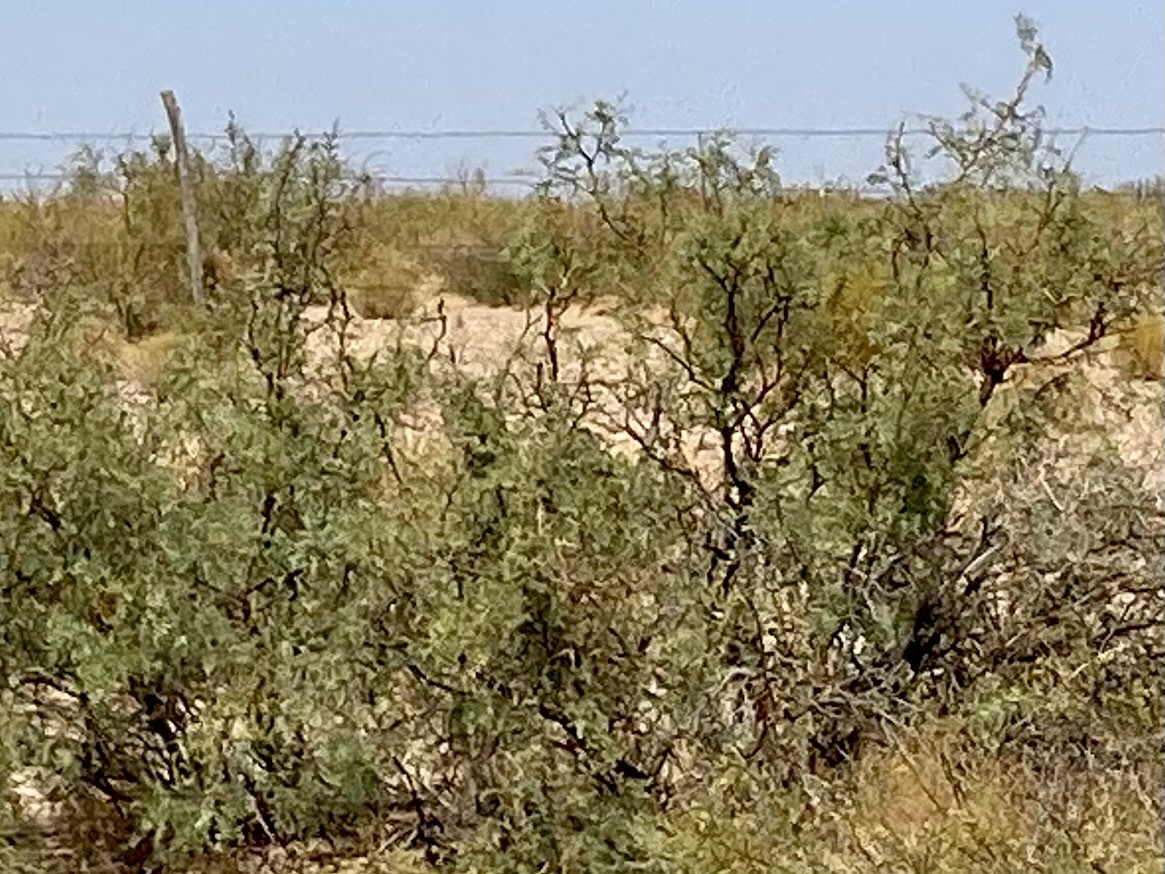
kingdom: Plantae
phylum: Tracheophyta
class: Magnoliopsida
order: Fabales
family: Fabaceae
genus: Prosopis
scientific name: Prosopis glandulosa
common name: Honey mesquite
